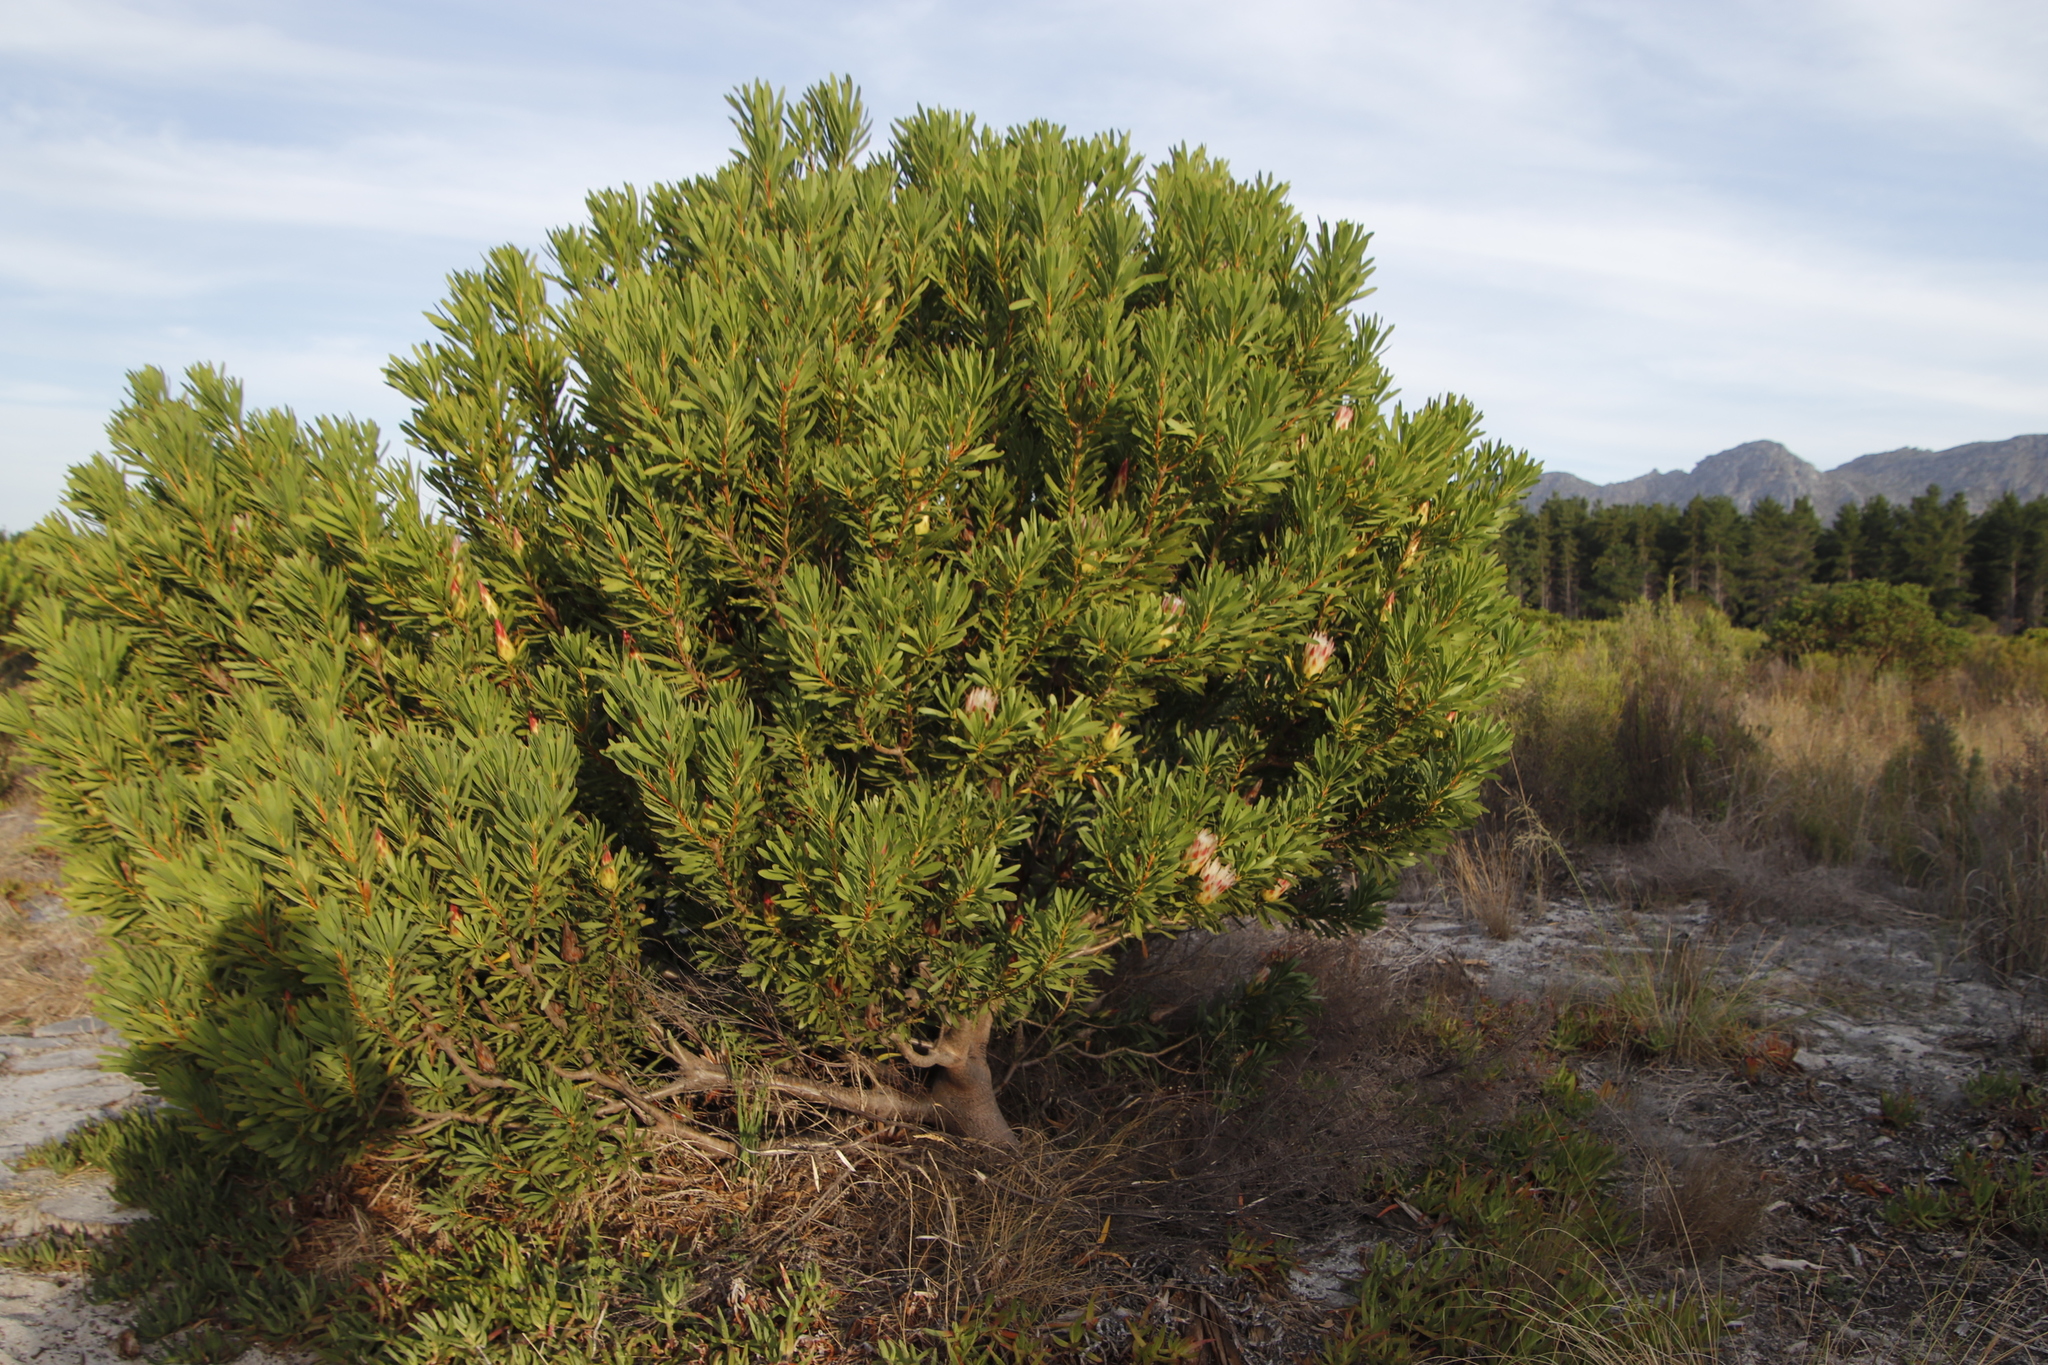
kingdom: Plantae
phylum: Tracheophyta
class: Magnoliopsida
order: Proteales
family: Proteaceae
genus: Protea
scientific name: Protea repens
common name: Sugarbush
